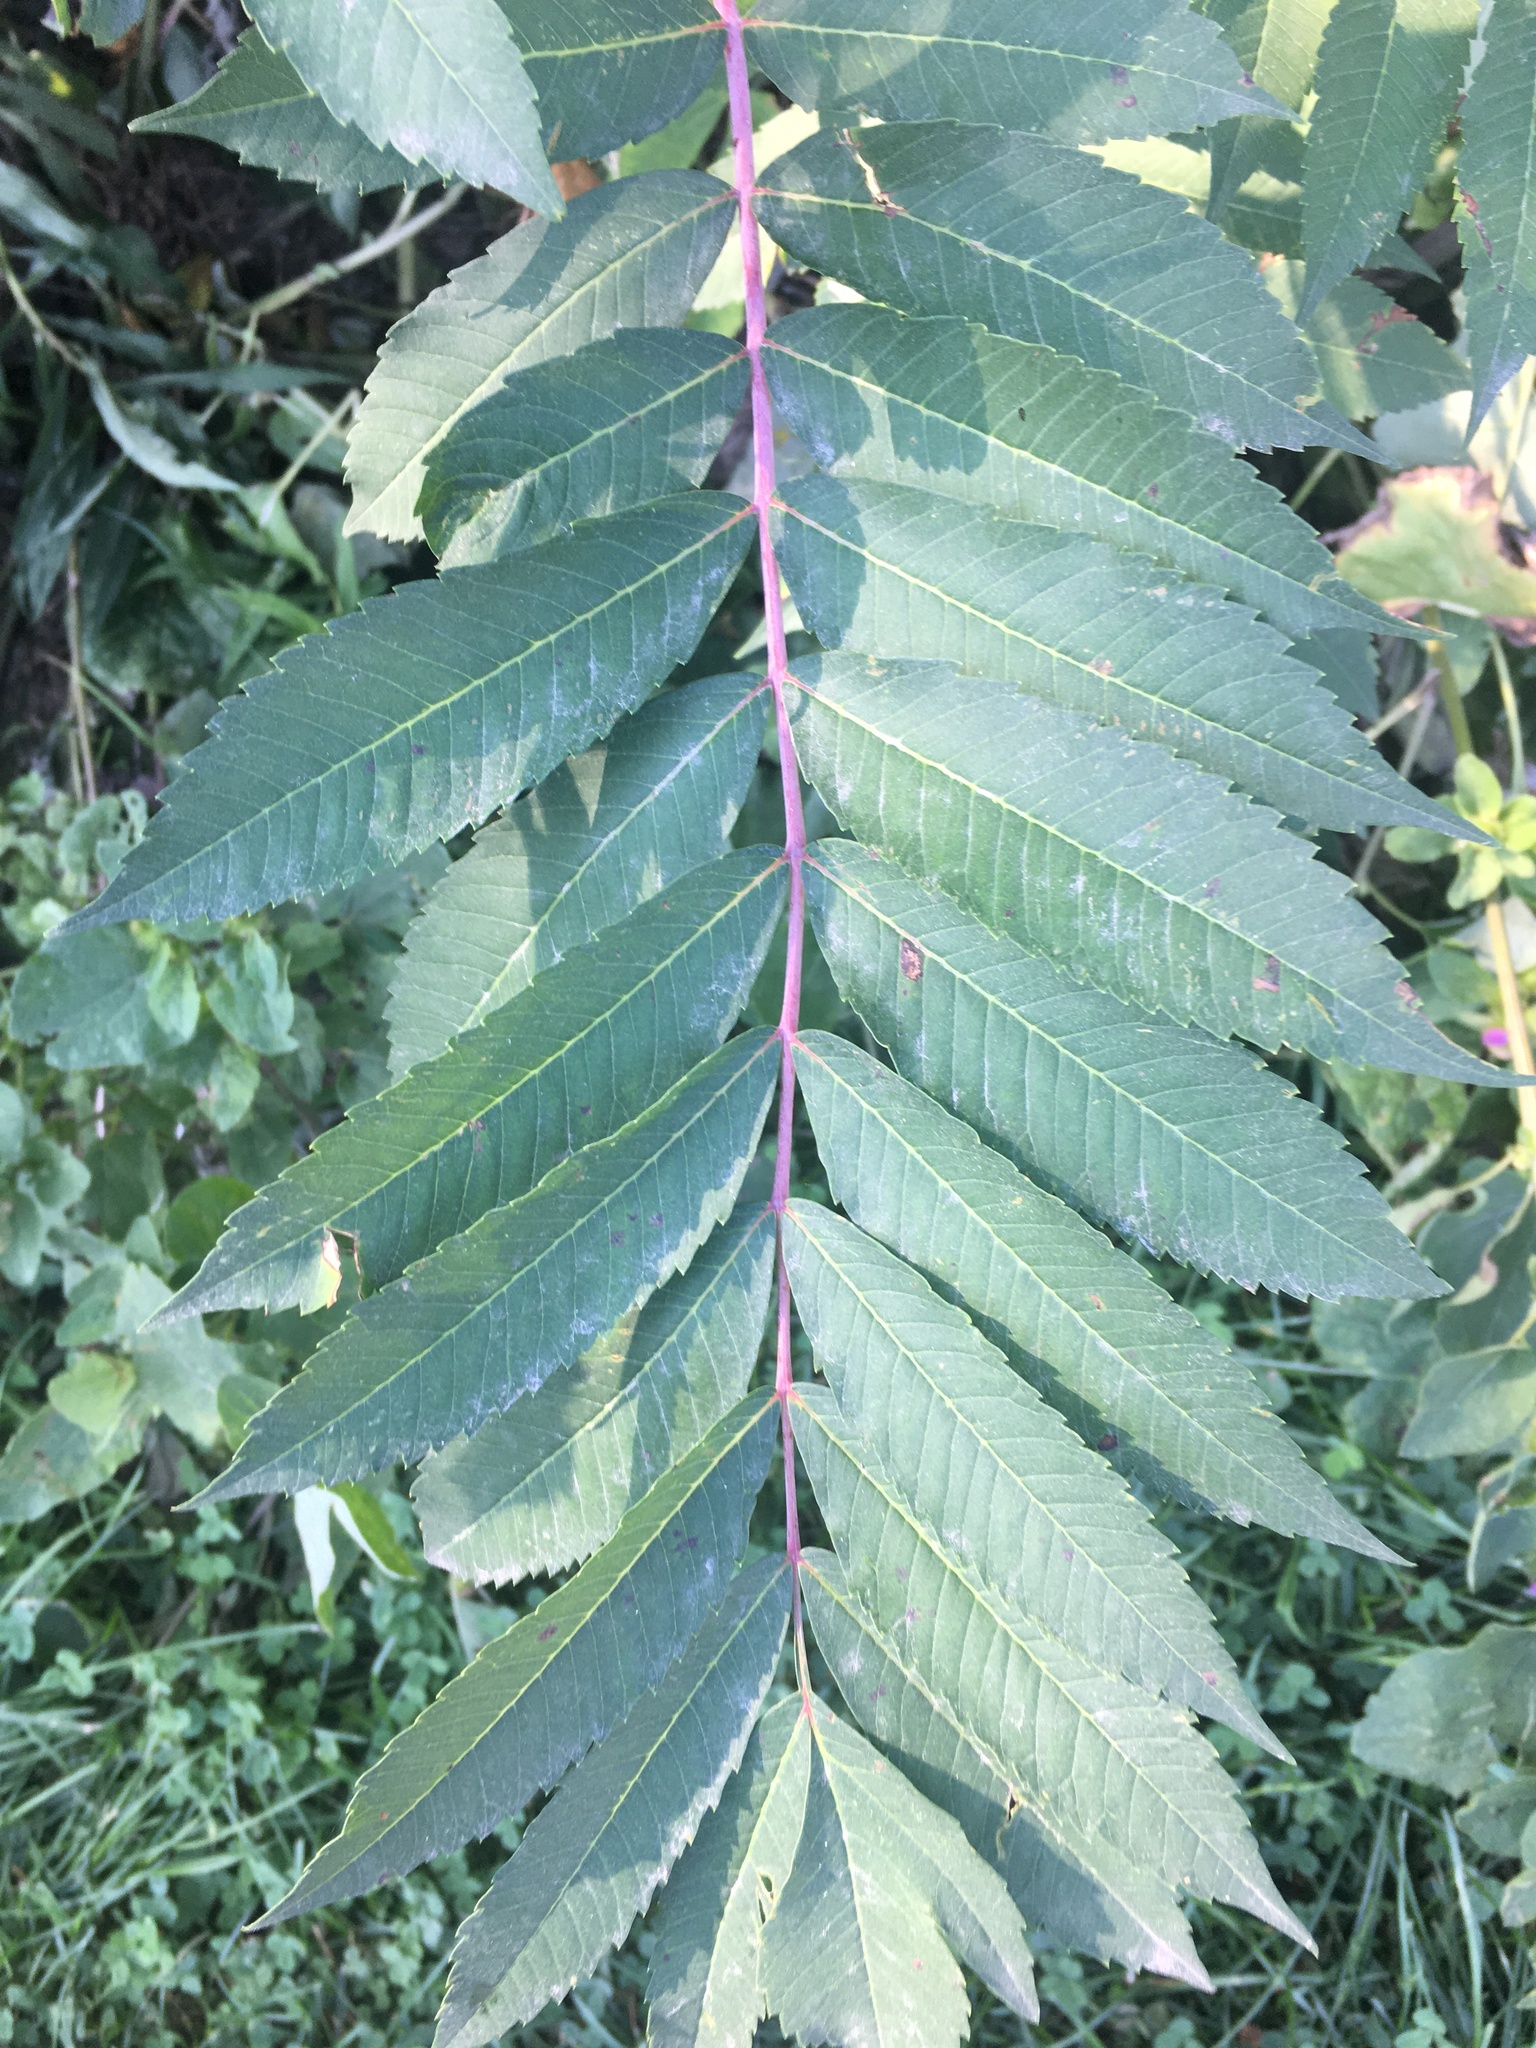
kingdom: Plantae
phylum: Tracheophyta
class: Magnoliopsida
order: Sapindales
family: Anacardiaceae
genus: Rhus
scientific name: Rhus glabra
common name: Scarlet sumac
